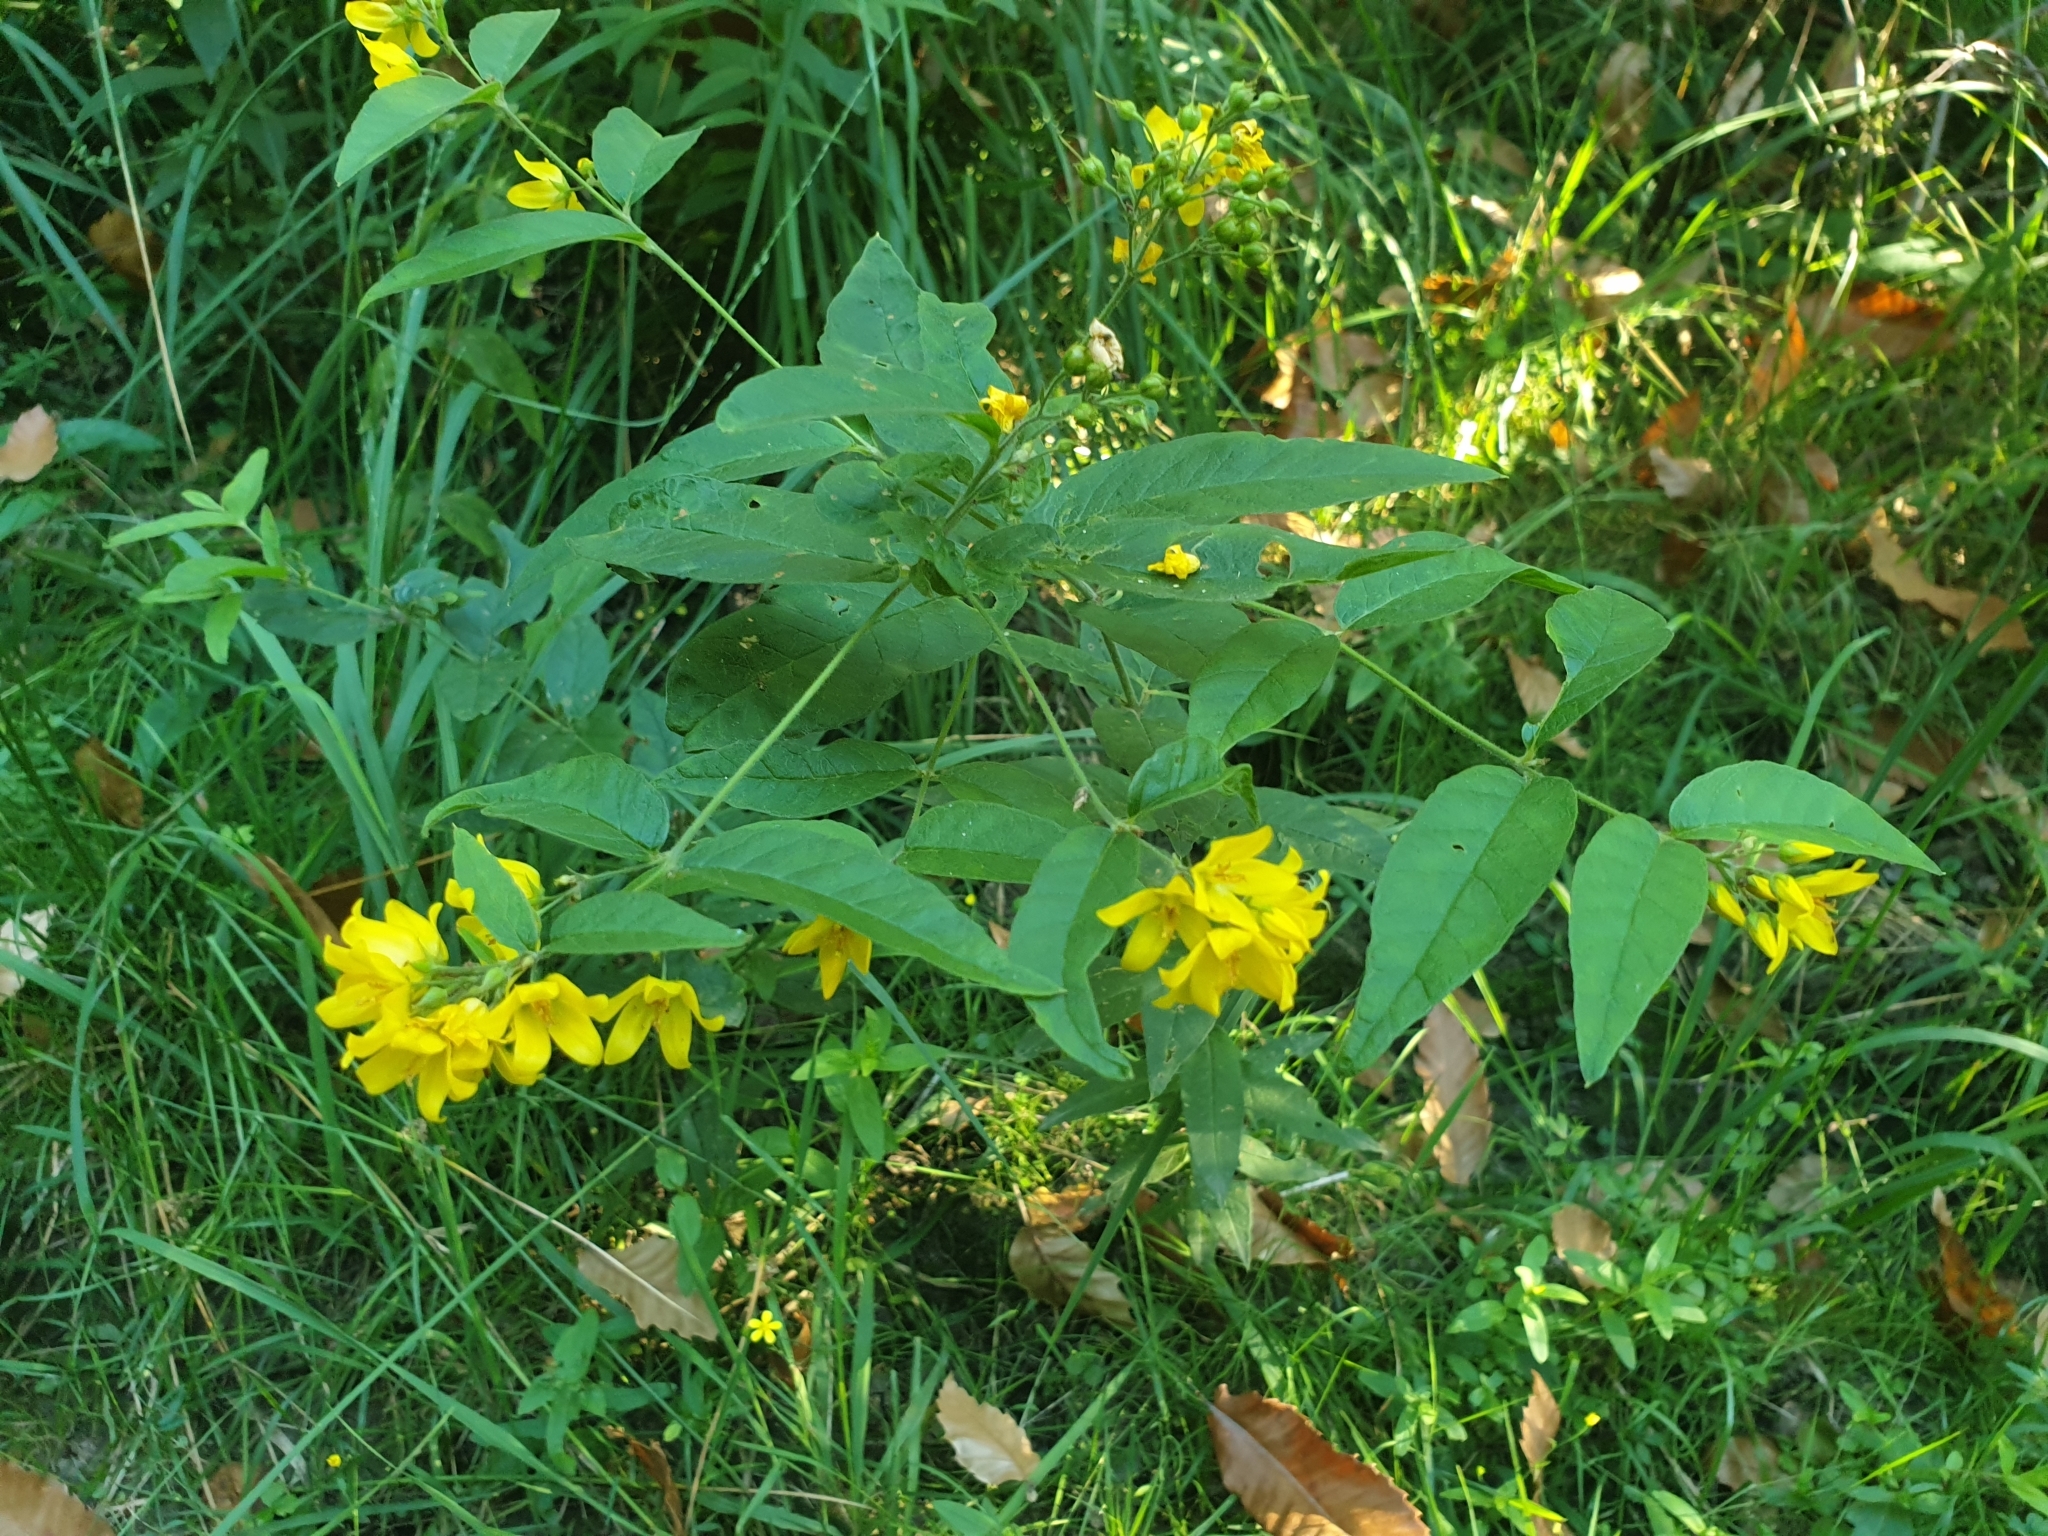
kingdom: Plantae
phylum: Tracheophyta
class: Magnoliopsida
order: Ericales
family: Primulaceae
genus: Lysimachia
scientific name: Lysimachia vulgaris
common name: Yellow loosestrife
